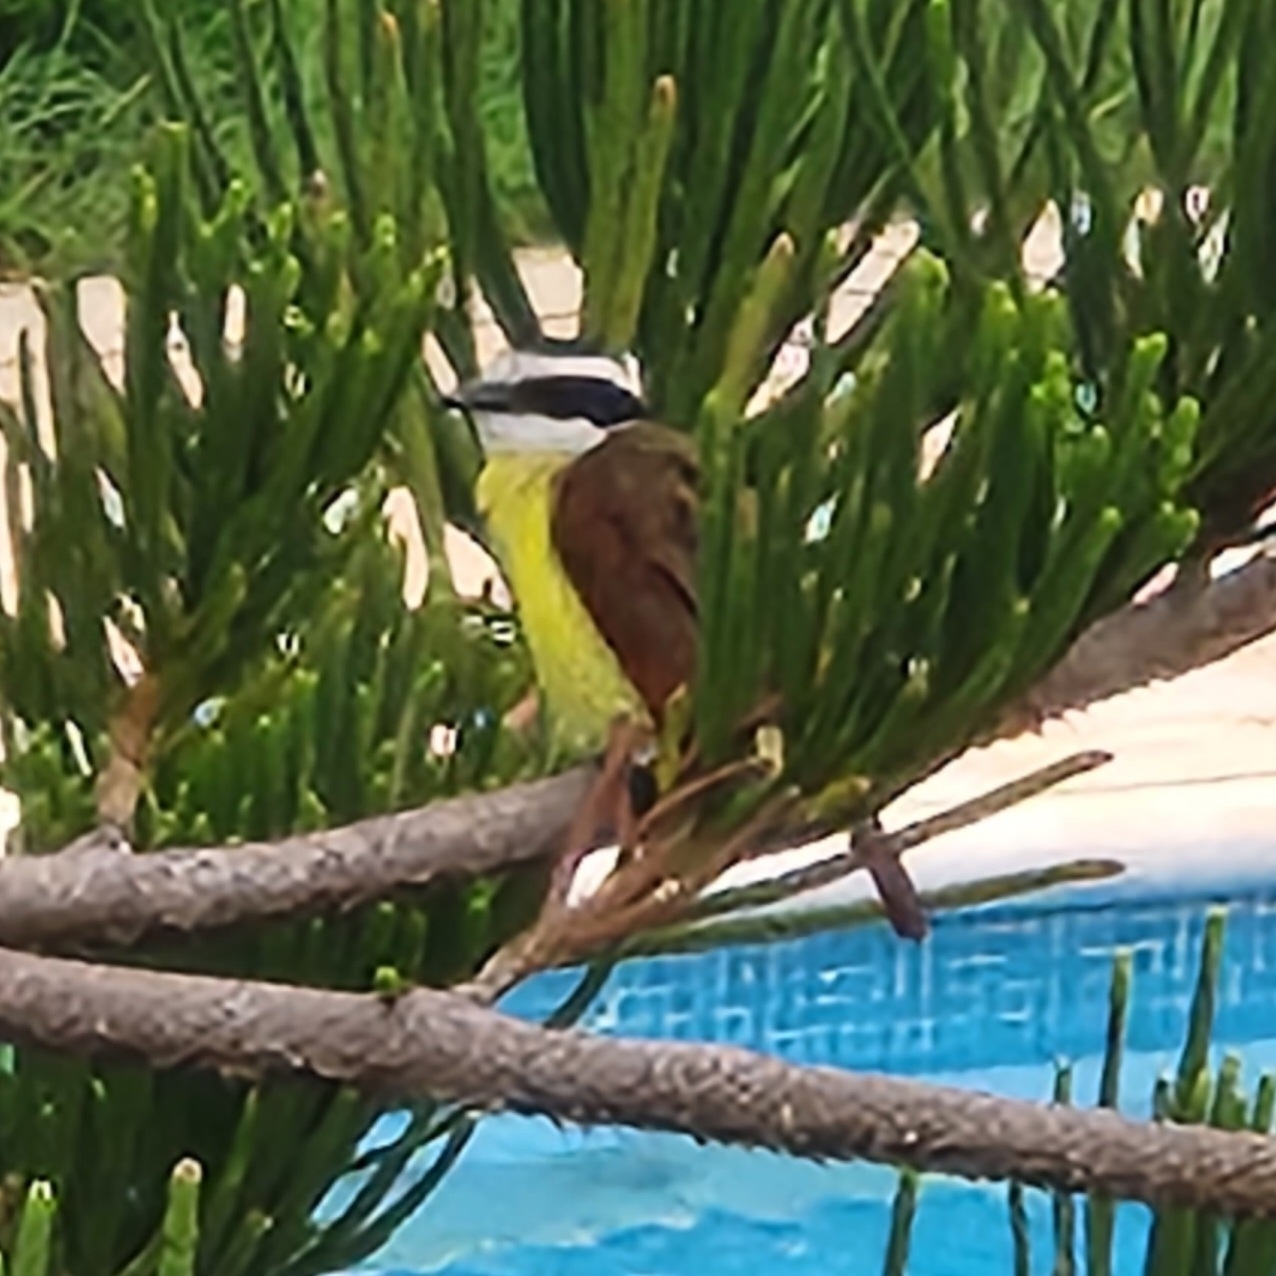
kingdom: Animalia
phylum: Chordata
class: Aves
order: Passeriformes
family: Tyrannidae
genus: Pitangus
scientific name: Pitangus sulphuratus
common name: Great kiskadee
